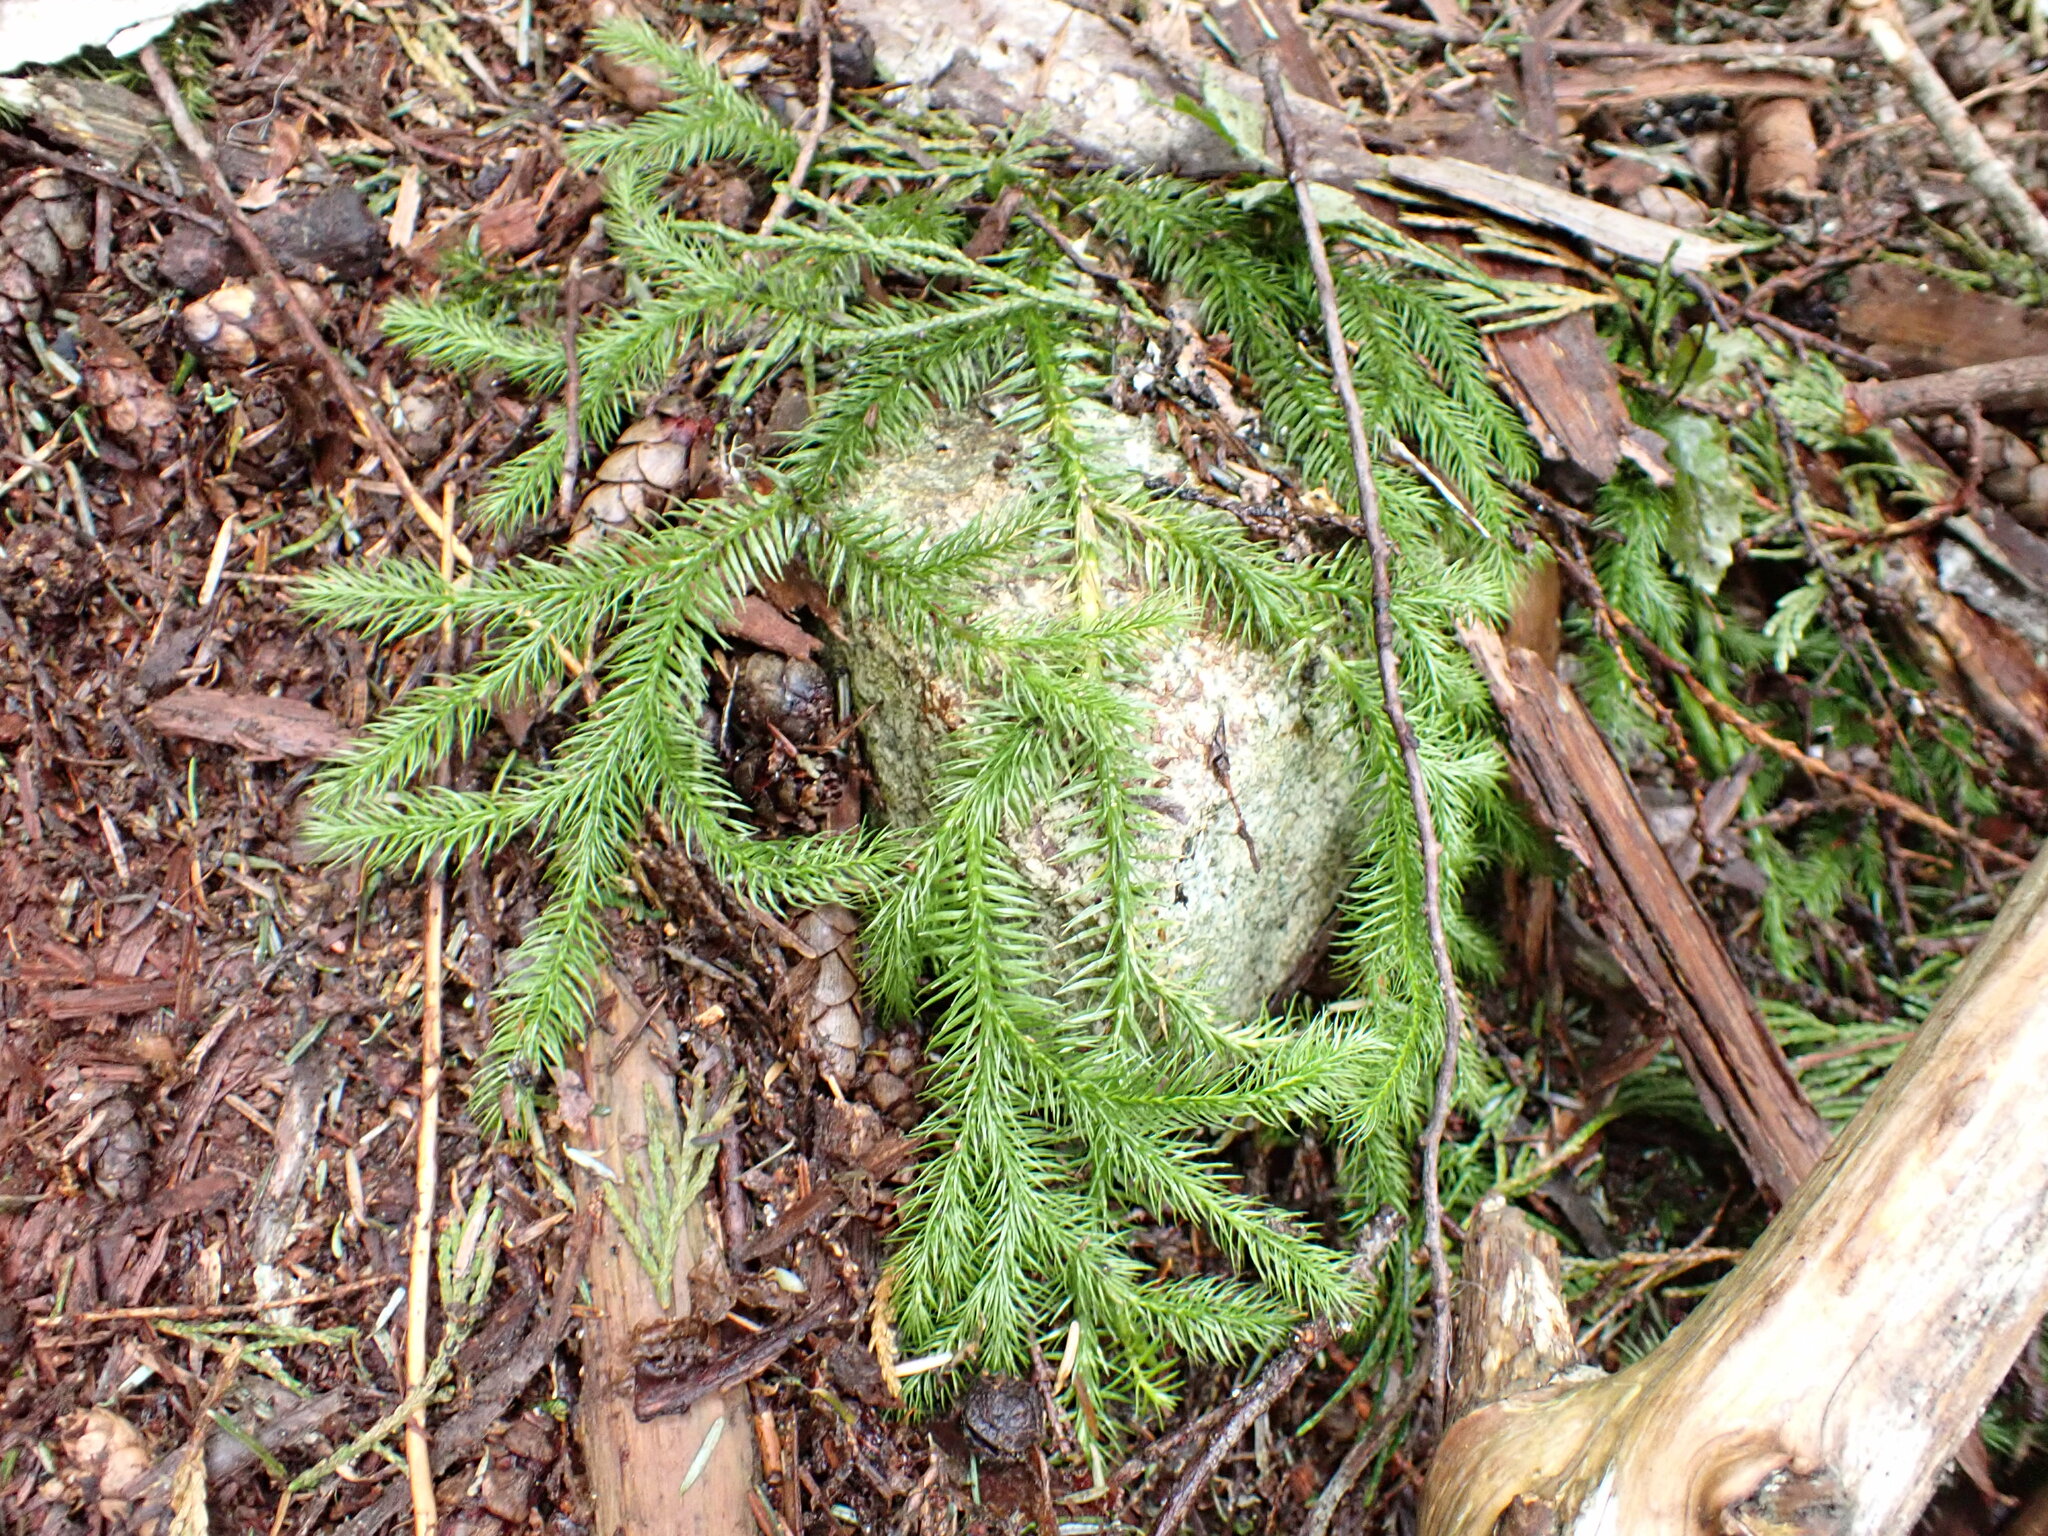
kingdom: Plantae
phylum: Tracheophyta
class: Lycopodiopsida
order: Lycopodiales
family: Lycopodiaceae
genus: Lycopodium
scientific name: Lycopodium clavatum
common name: Stag's-horn clubmoss
